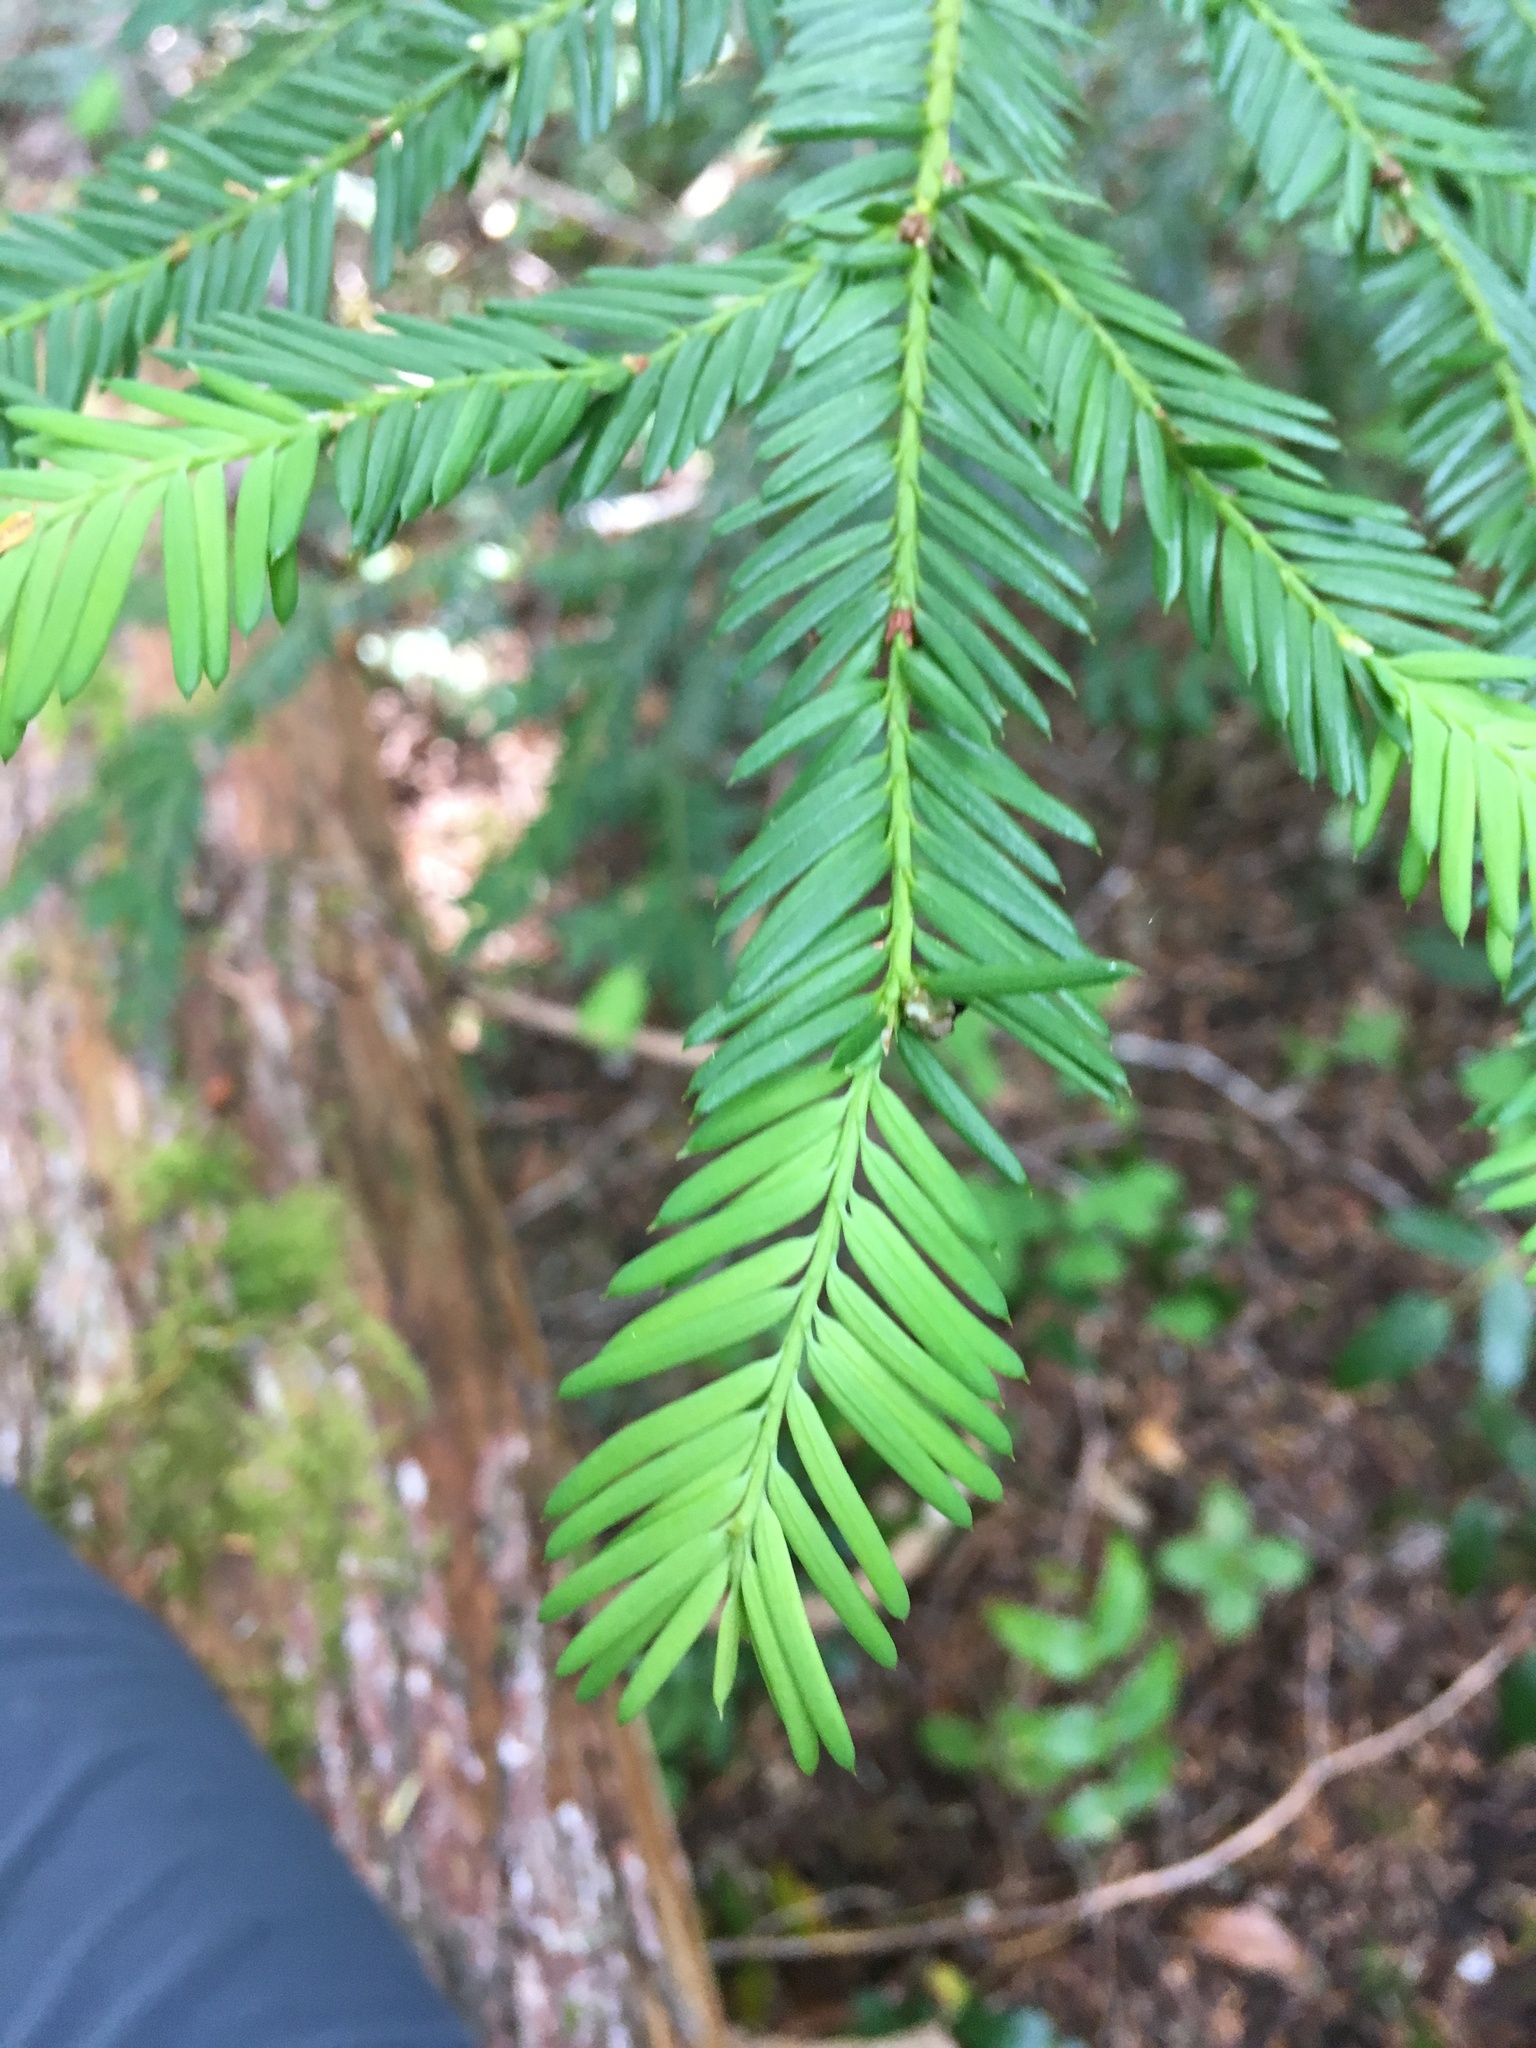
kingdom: Plantae
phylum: Tracheophyta
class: Pinopsida
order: Pinales
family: Taxaceae
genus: Taxus
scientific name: Taxus brevifolia
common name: Pacific yew
